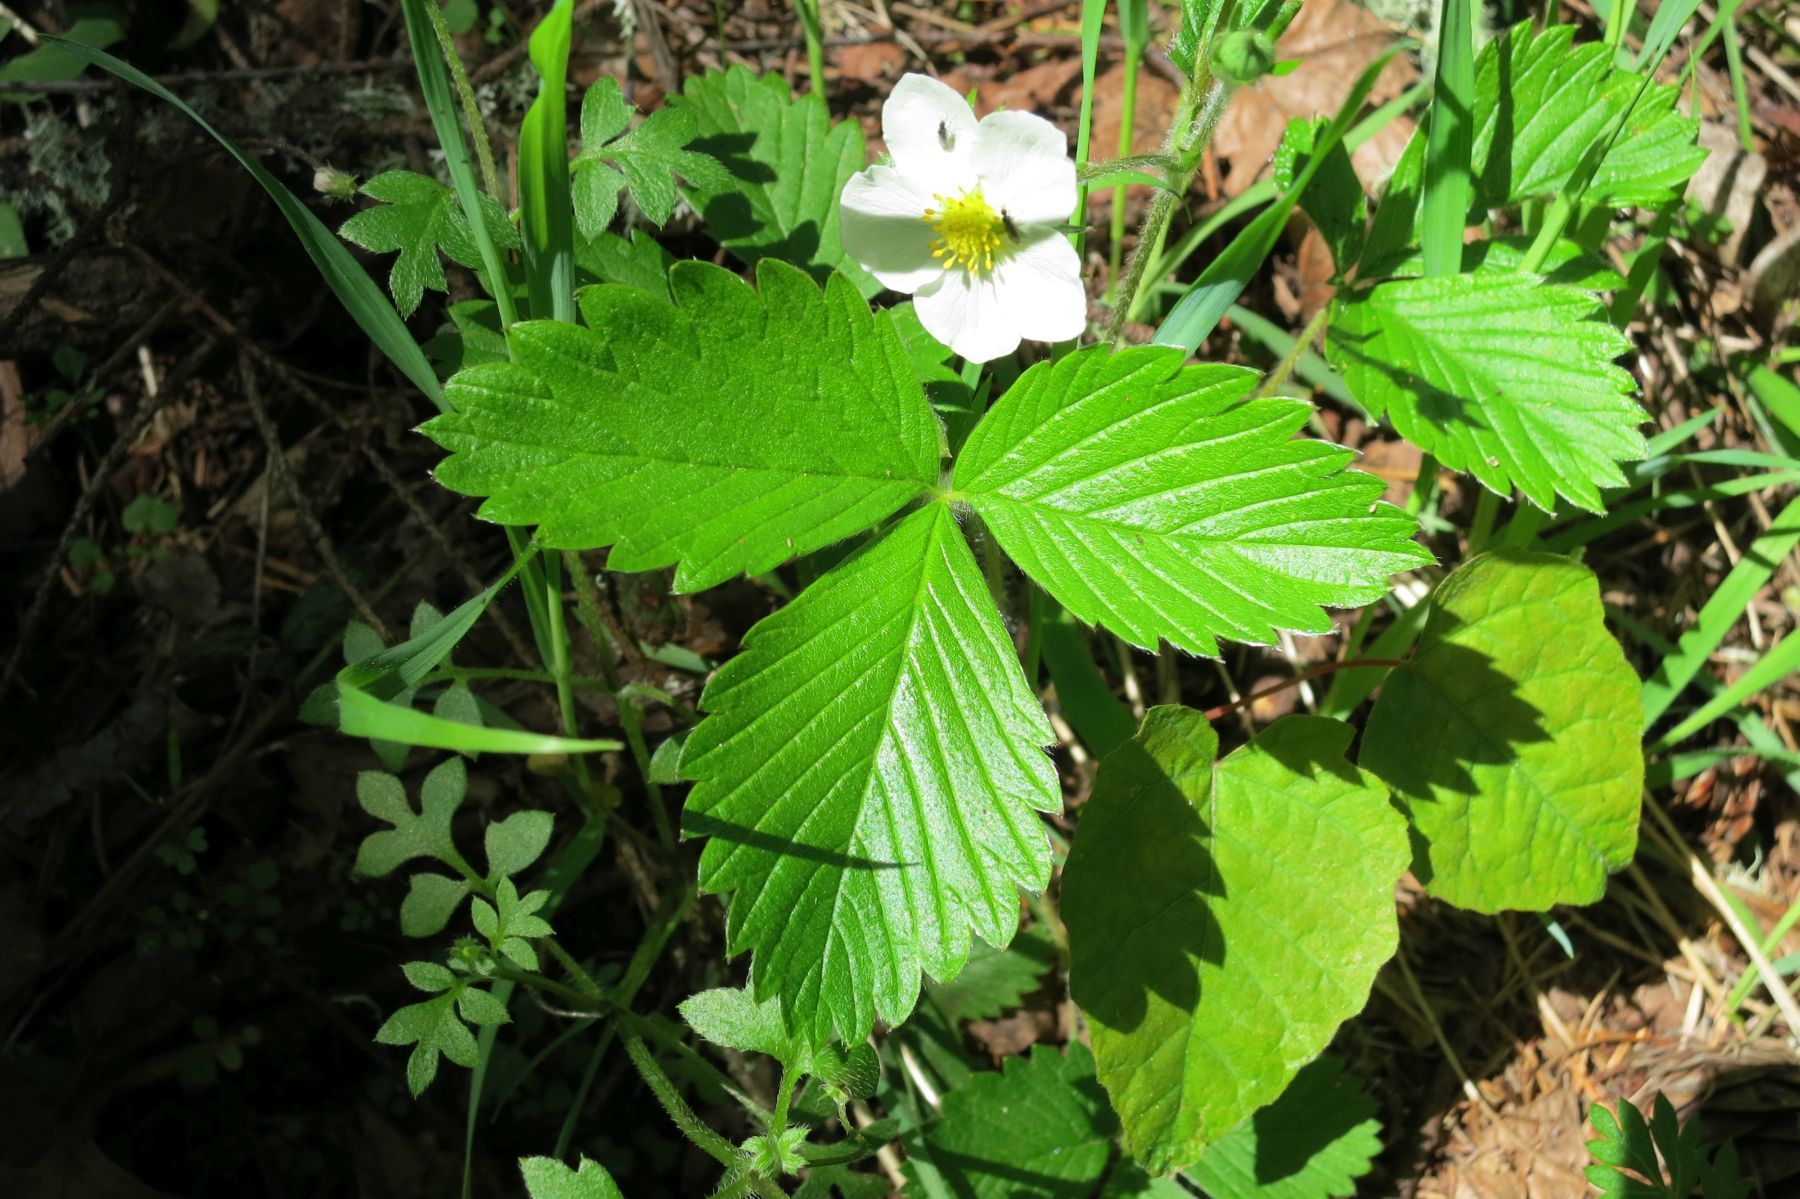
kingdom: Plantae
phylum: Tracheophyta
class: Magnoliopsida
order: Rosales
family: Rosaceae
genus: Fragaria
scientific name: Fragaria vesca
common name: Wild strawberry
